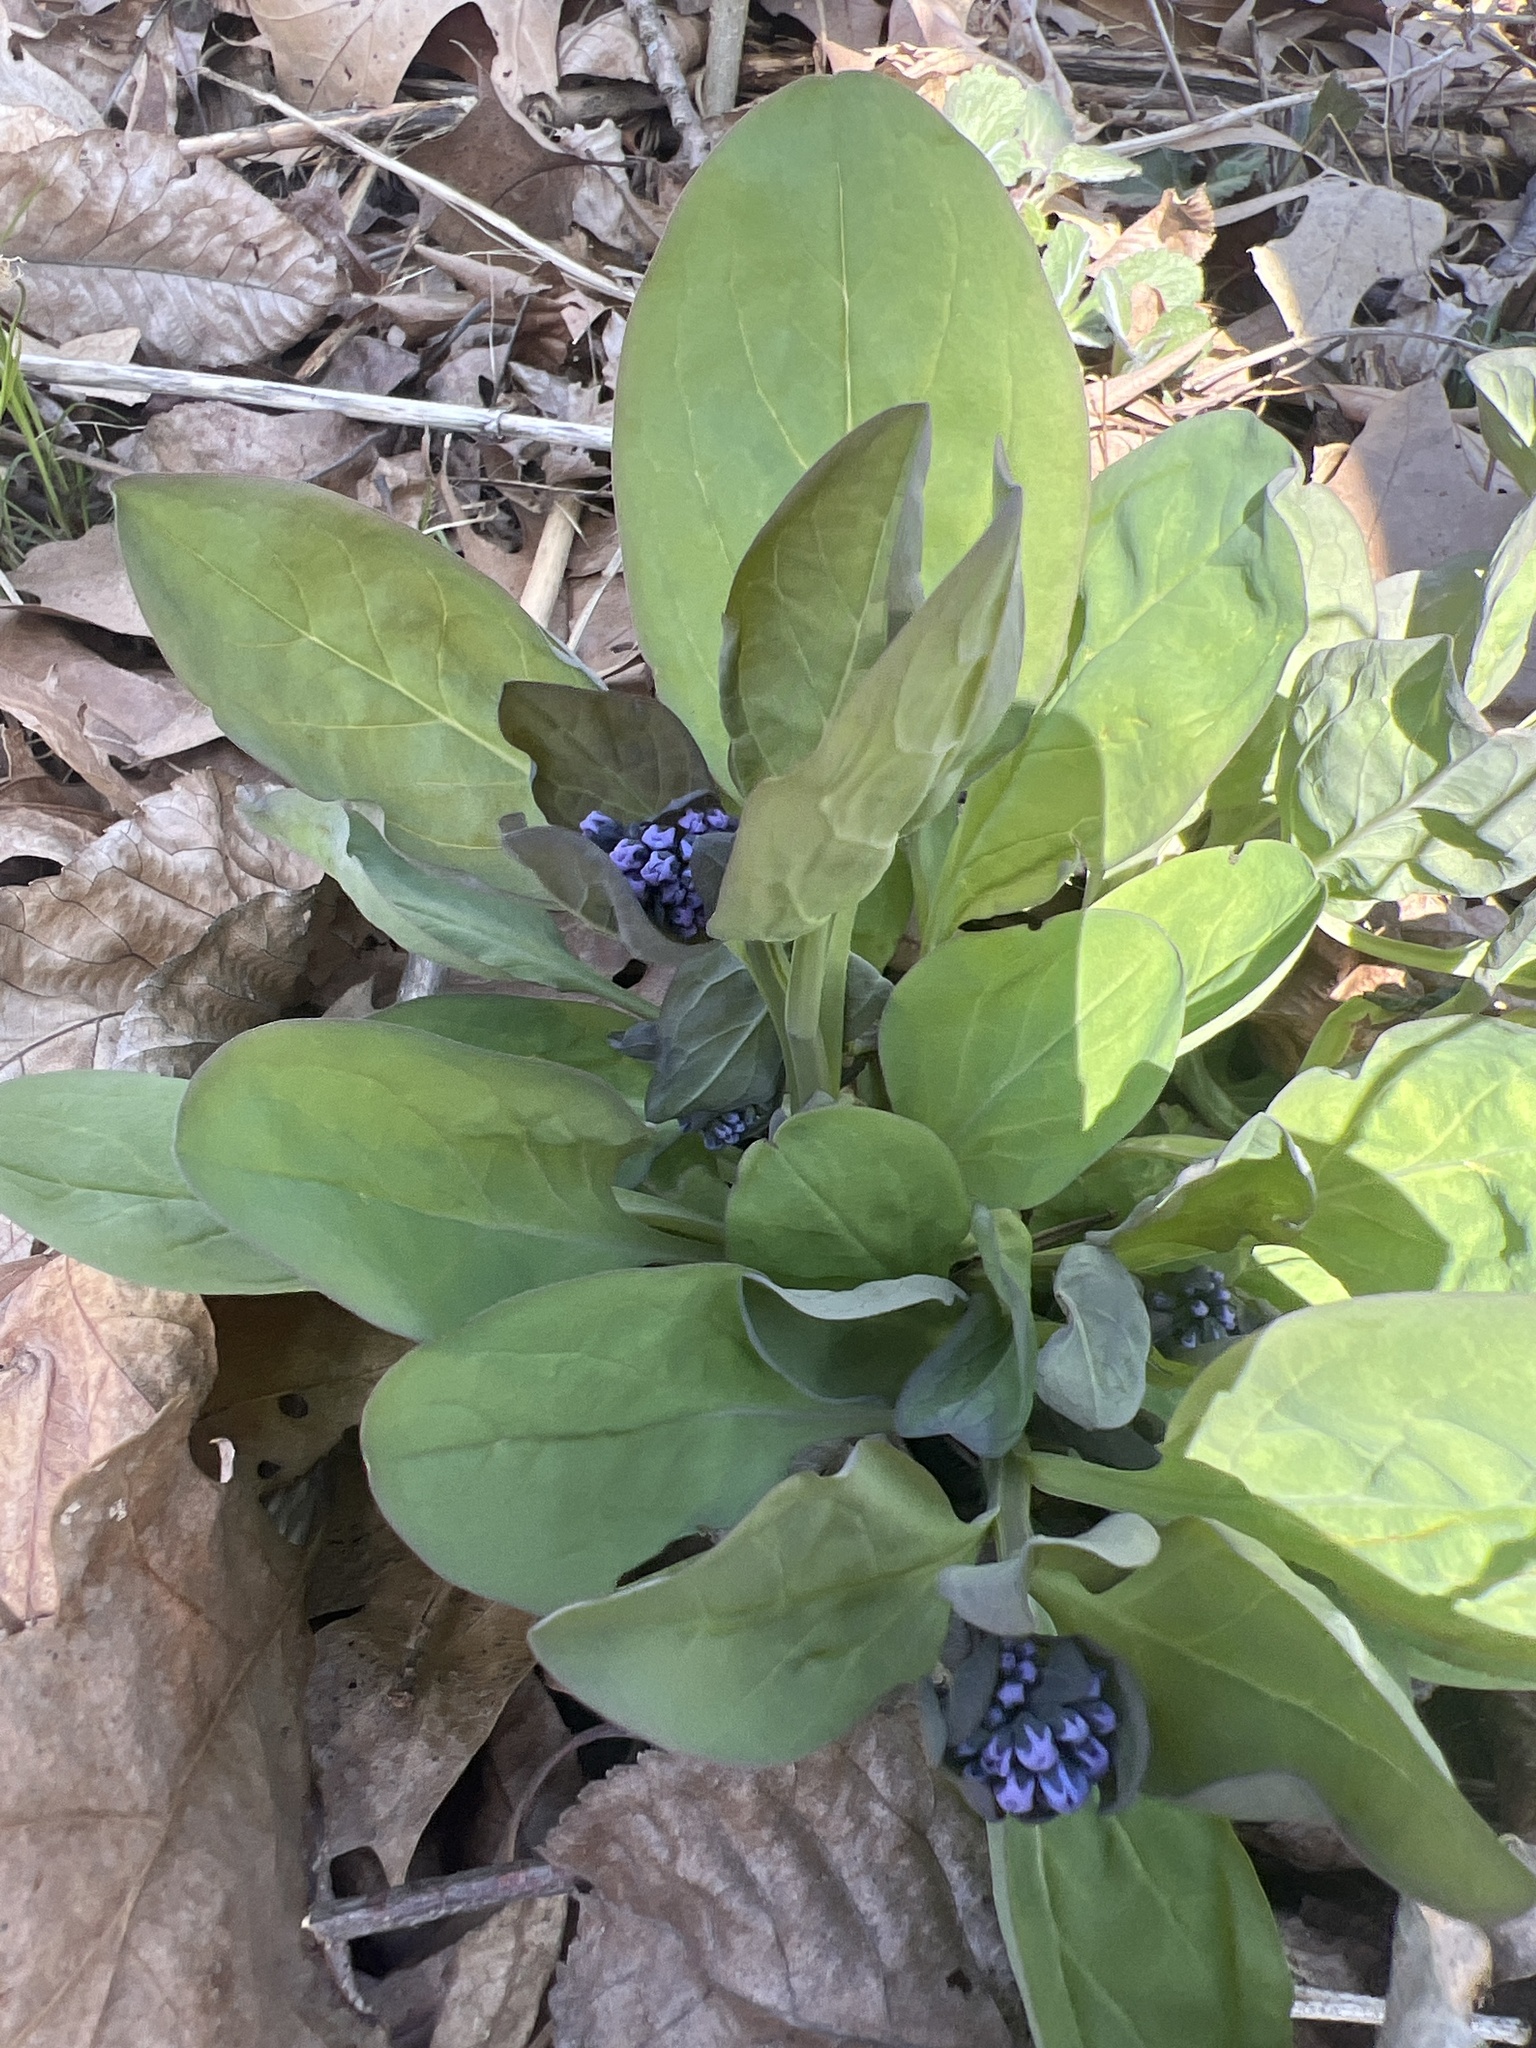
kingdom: Plantae
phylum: Tracheophyta
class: Magnoliopsida
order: Boraginales
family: Boraginaceae
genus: Mertensia
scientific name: Mertensia virginica
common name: Virginia bluebells
